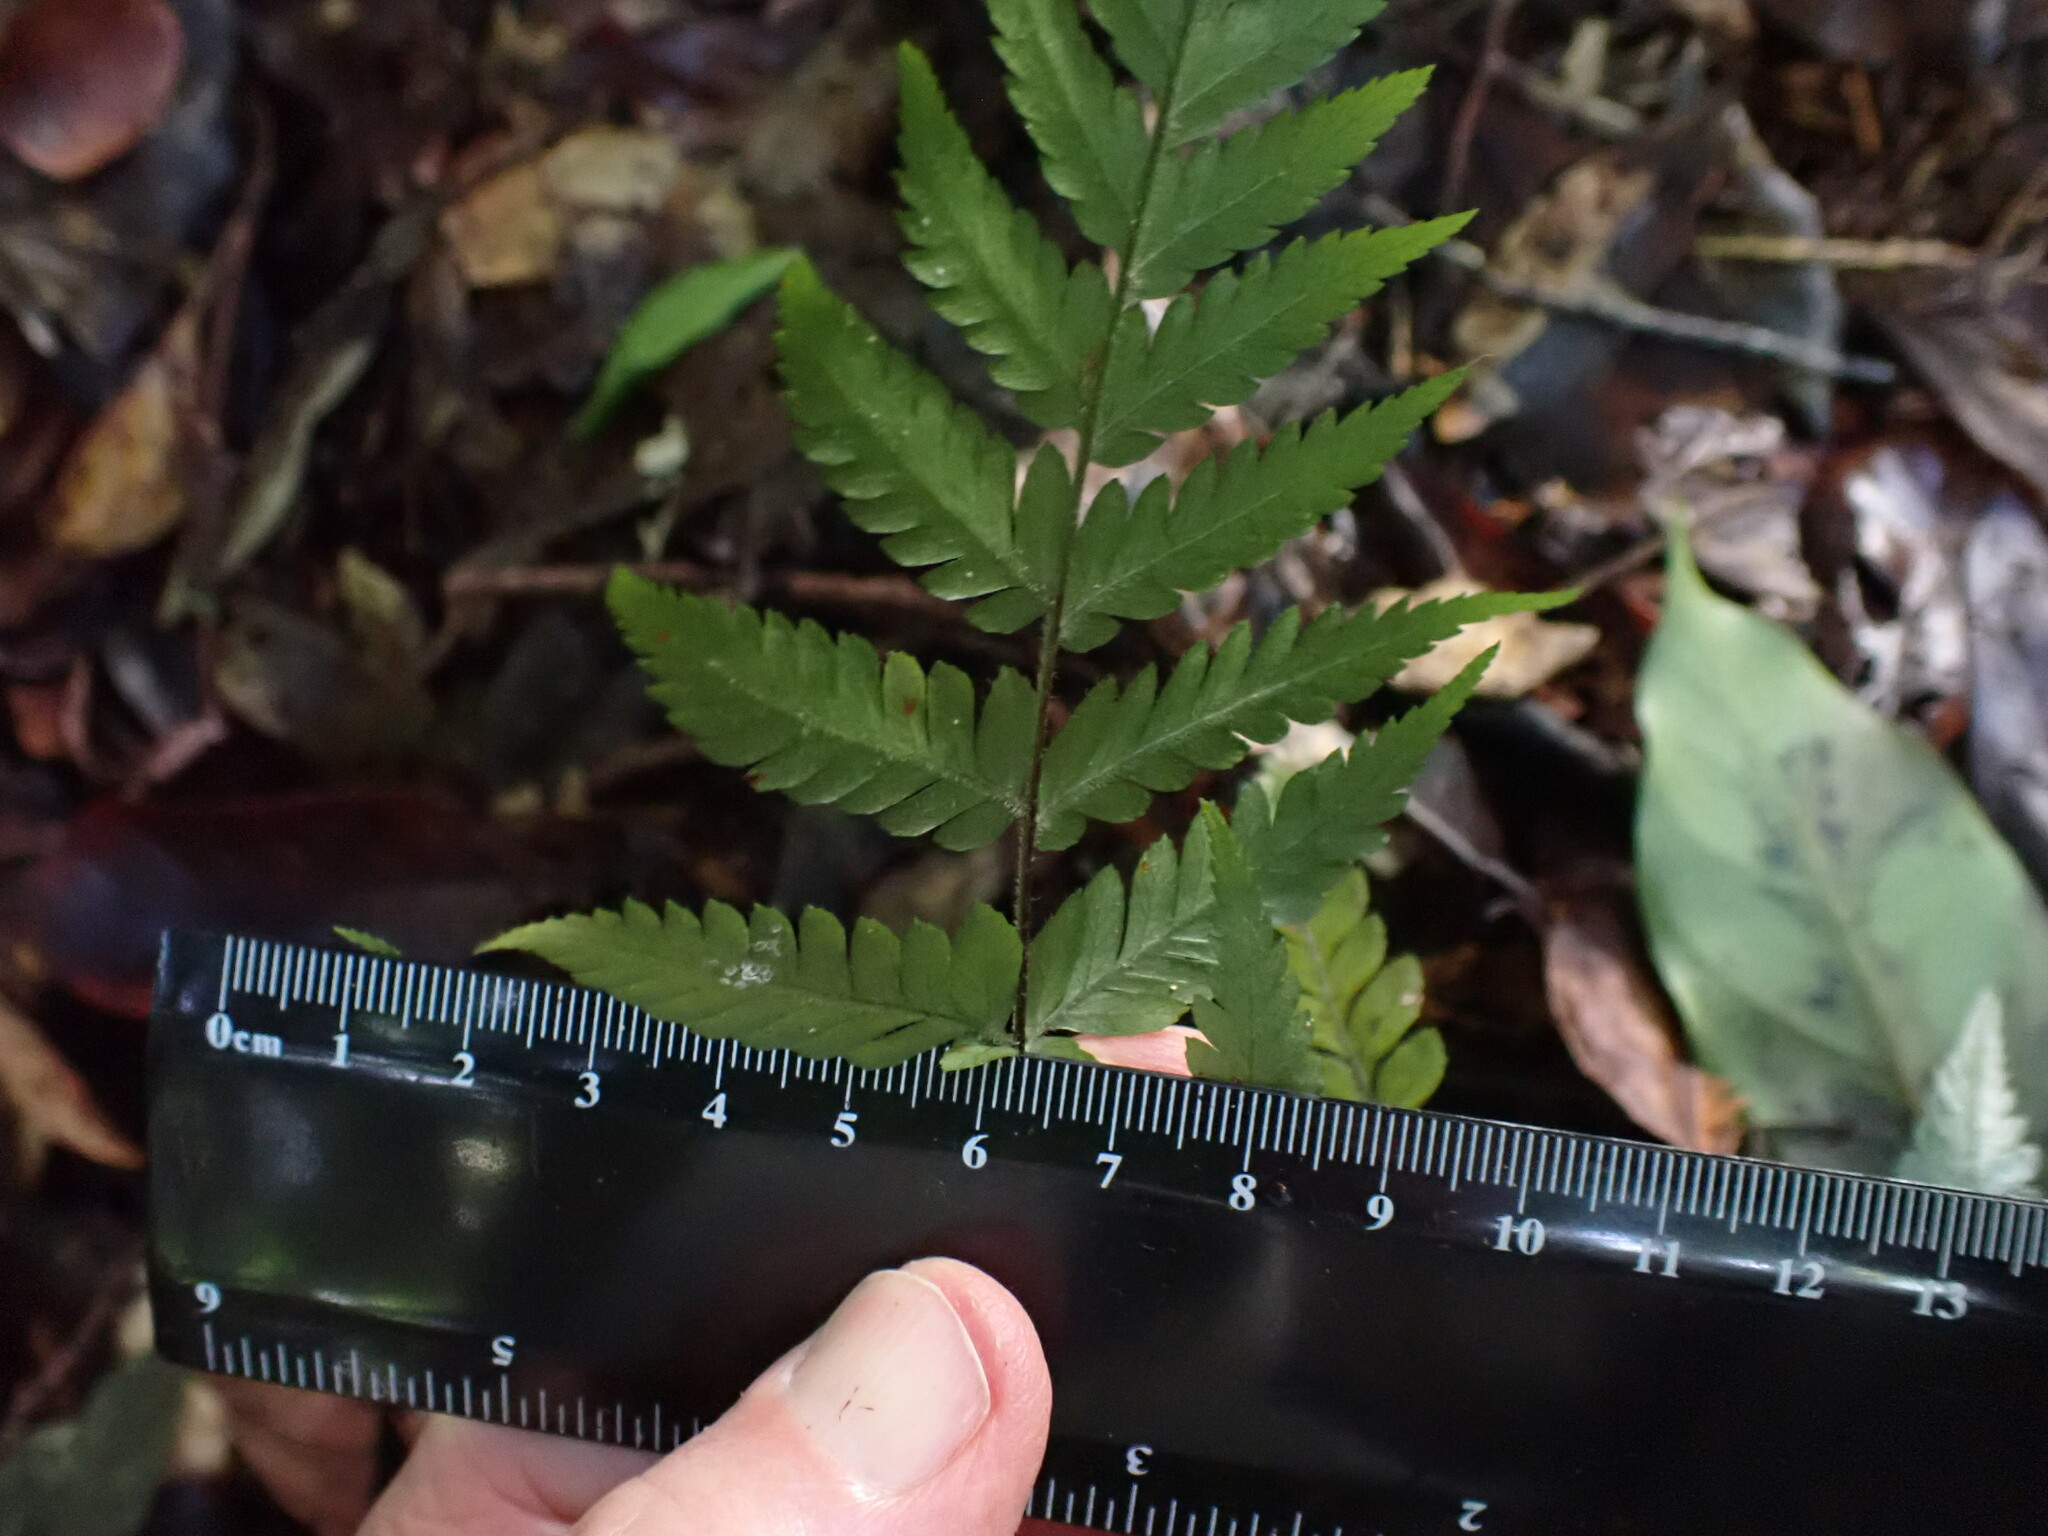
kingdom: Plantae
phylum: Tracheophyta
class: Polypodiopsida
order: Polypodiales
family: Tectariaceae
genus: Tectaria
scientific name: Tectaria confluens
